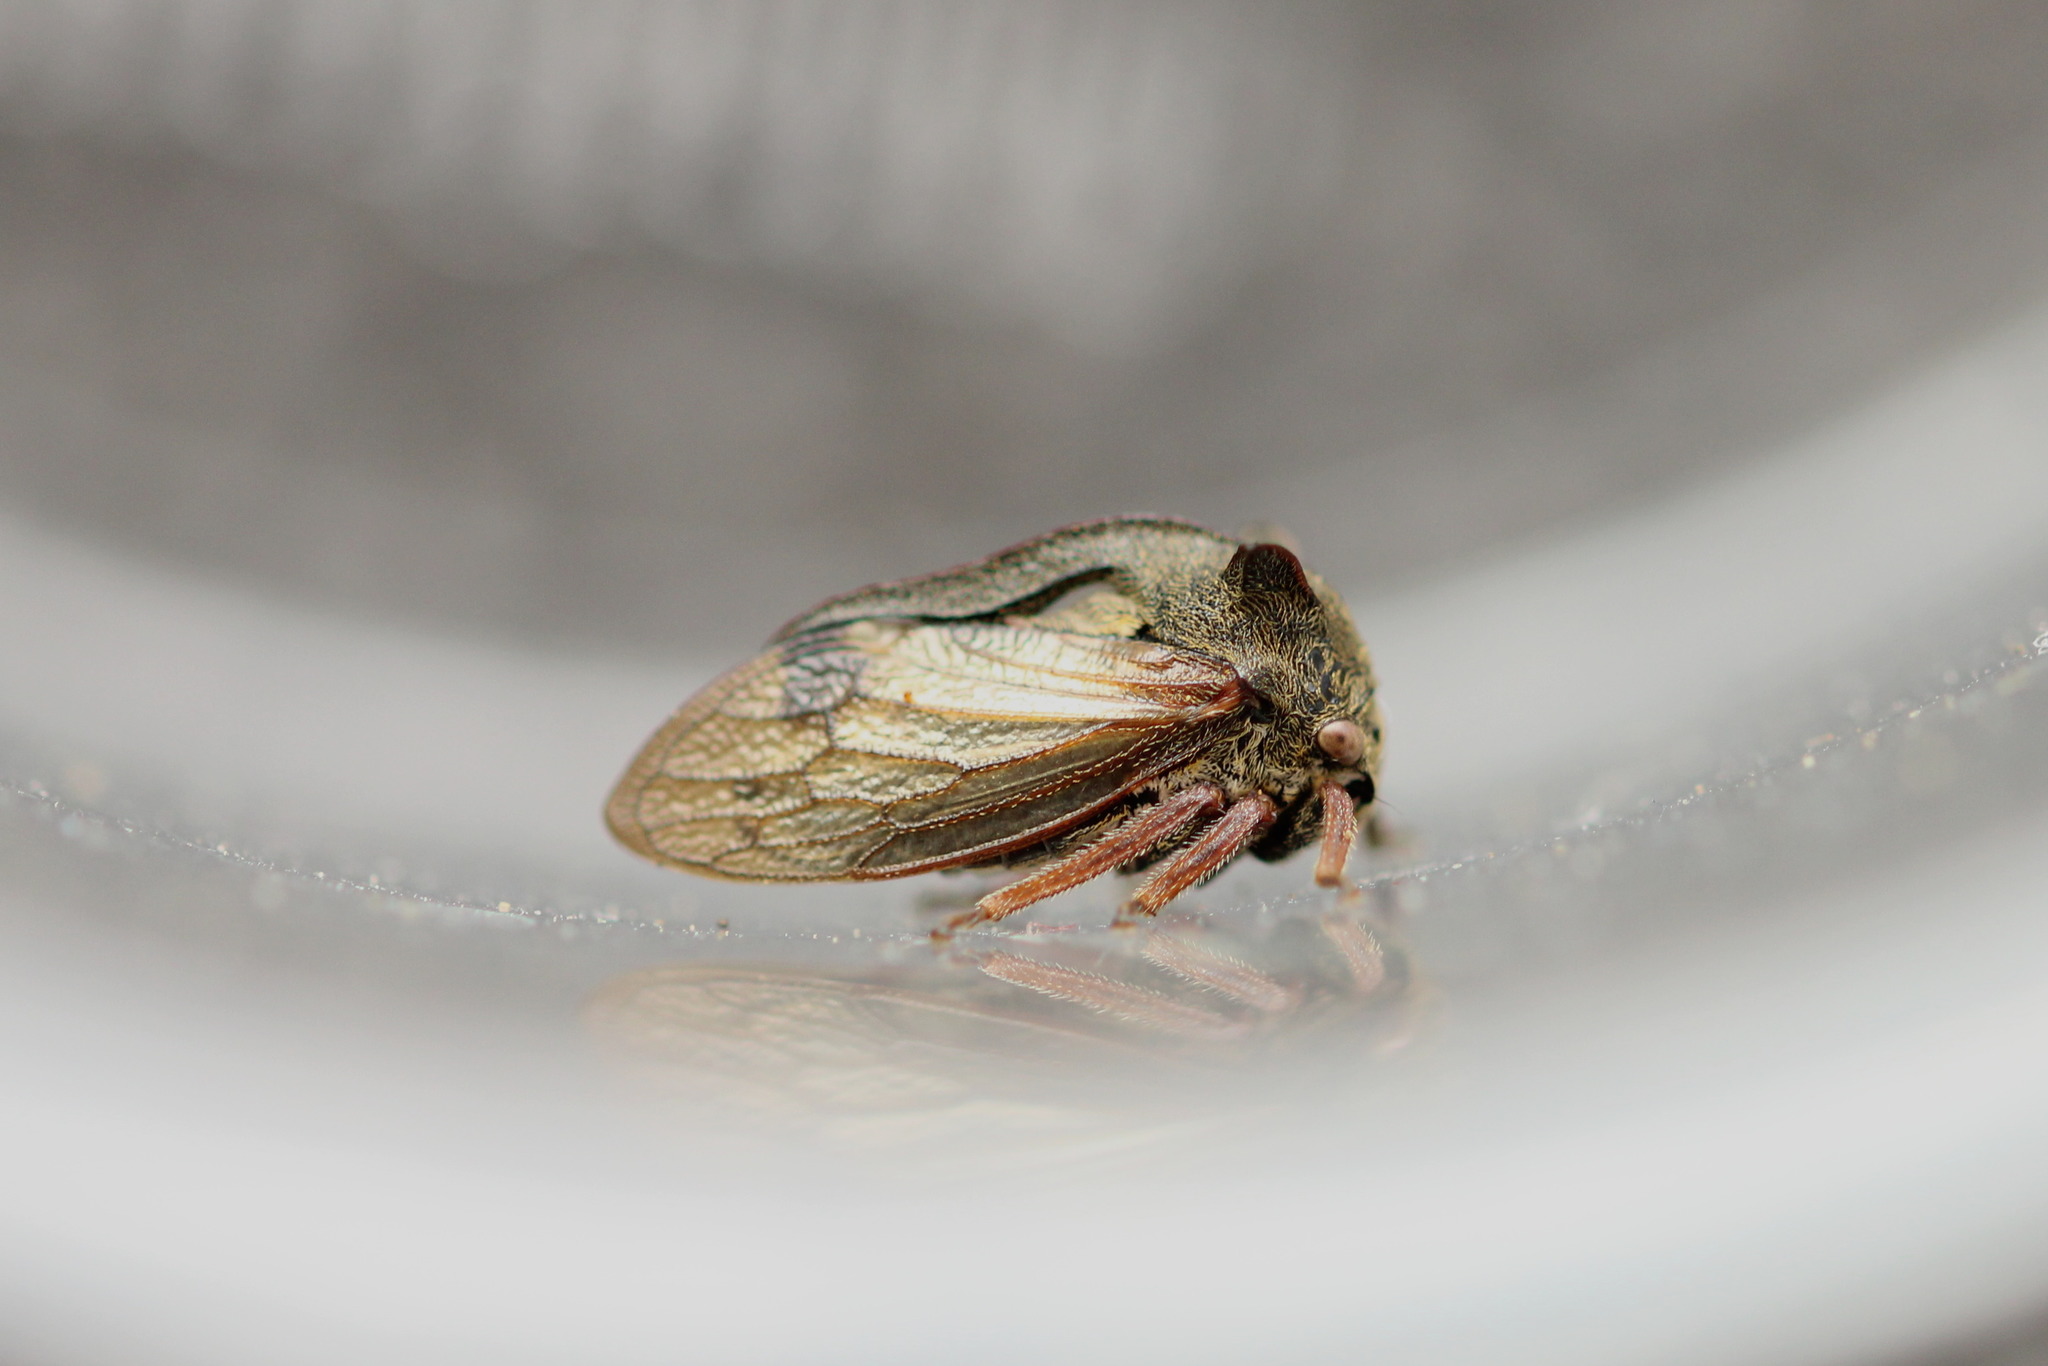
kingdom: Animalia
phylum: Arthropoda
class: Insecta
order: Hemiptera
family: Membracidae
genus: Centrotus
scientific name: Centrotus cornuta
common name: Treehopper
